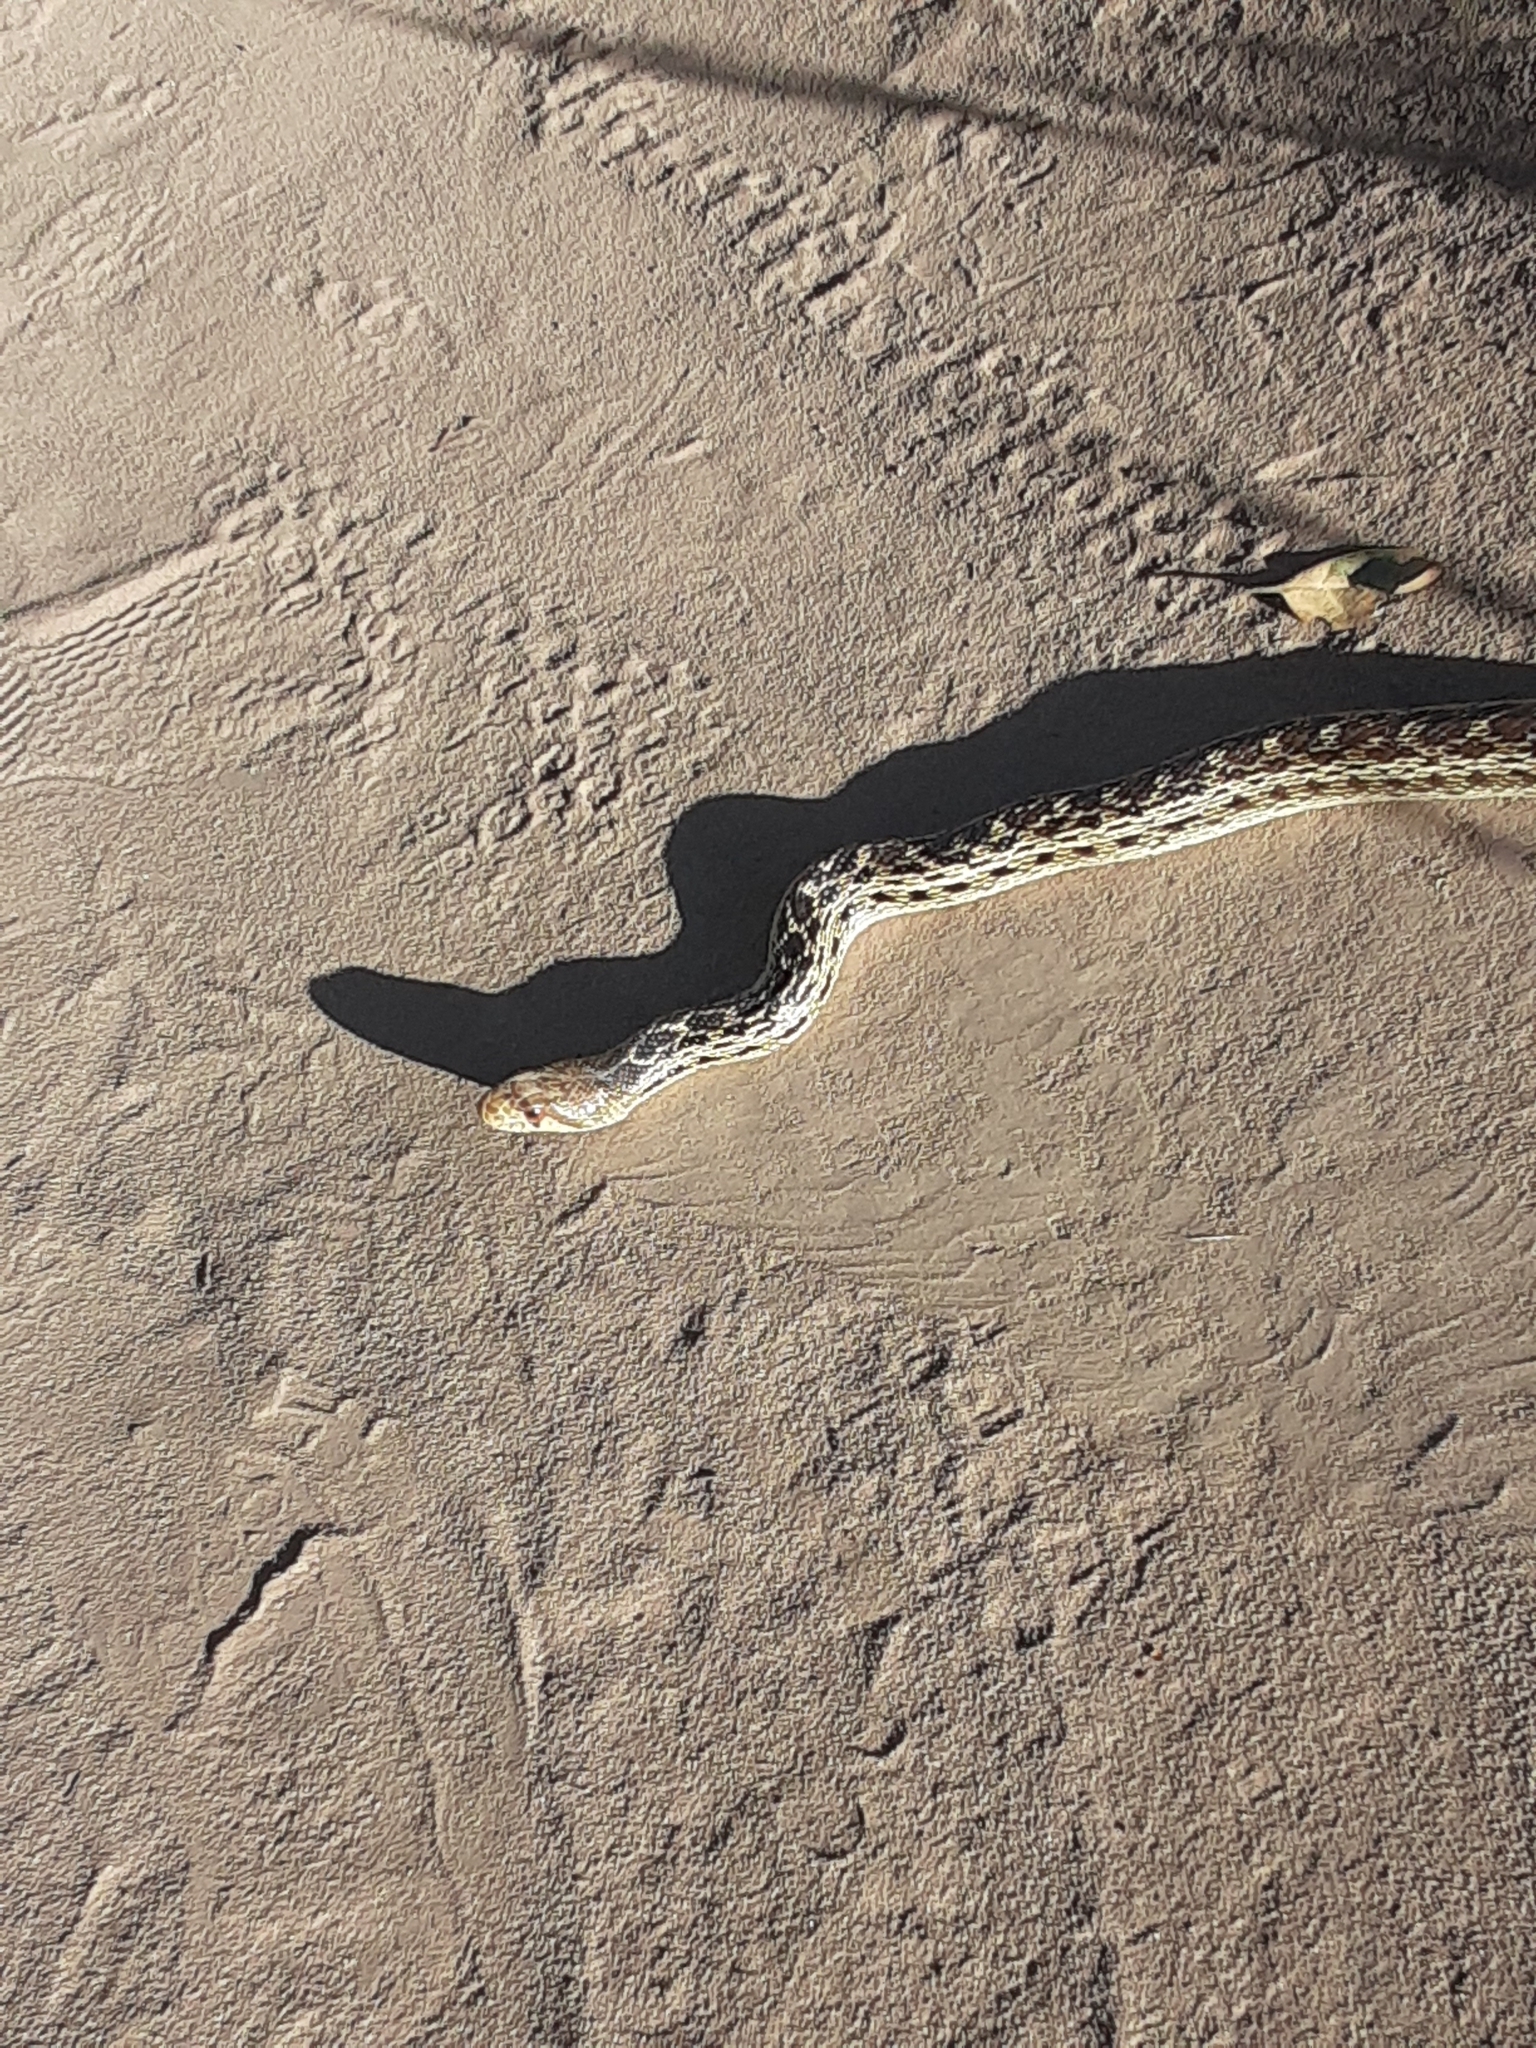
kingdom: Animalia
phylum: Chordata
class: Squamata
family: Colubridae
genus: Pituophis
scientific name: Pituophis catenifer
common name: Gopher snake
